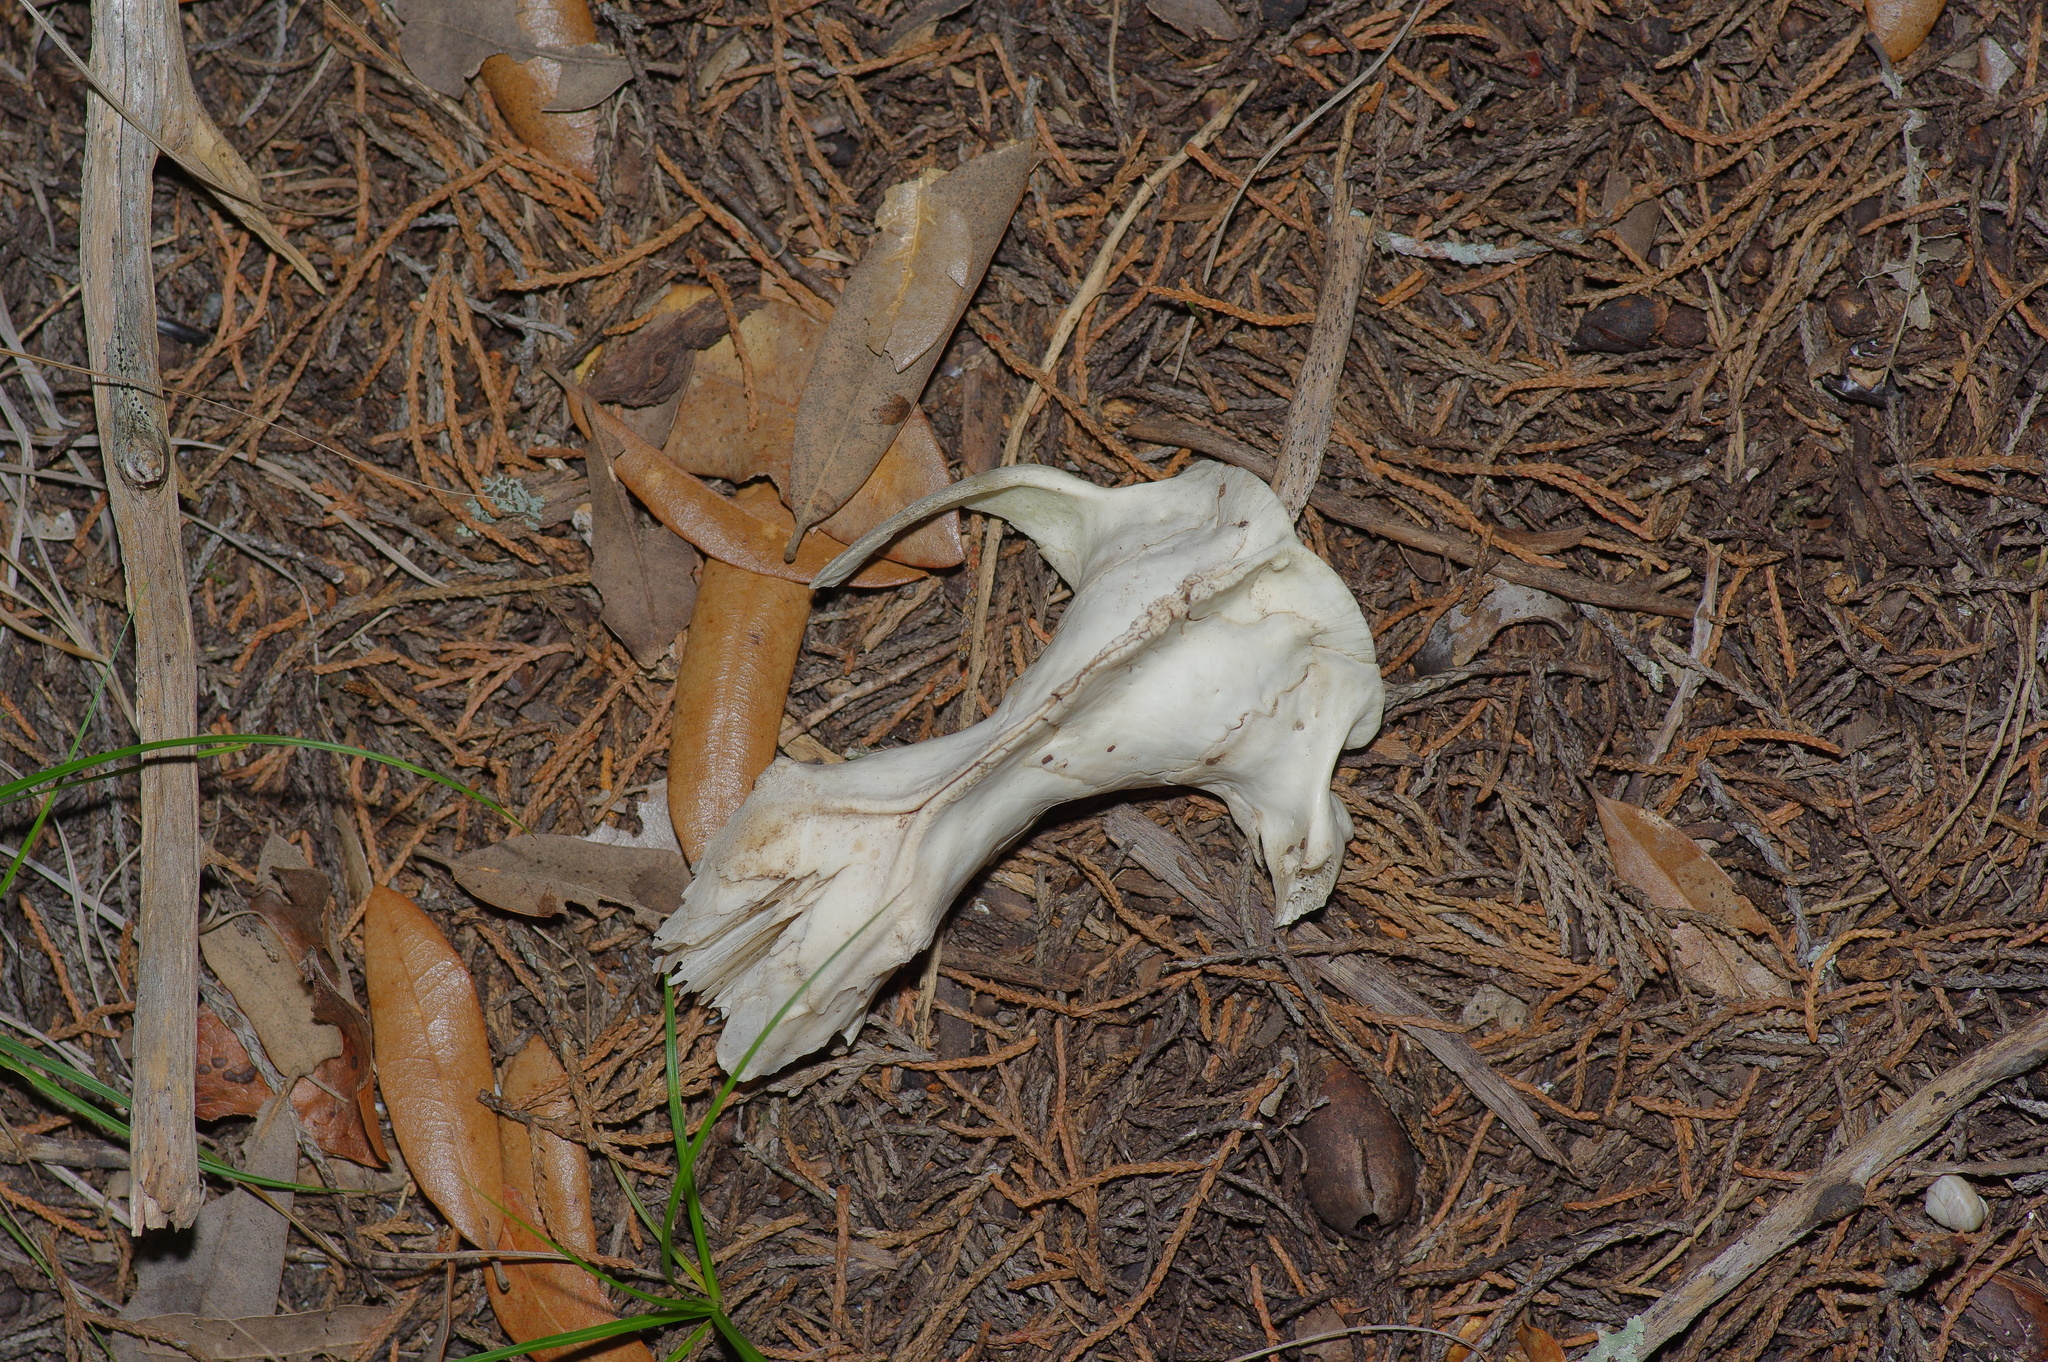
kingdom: Animalia
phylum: Chordata
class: Mammalia
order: Didelphimorphia
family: Didelphidae
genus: Didelphis
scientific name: Didelphis virginiana
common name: Virginia opossum
